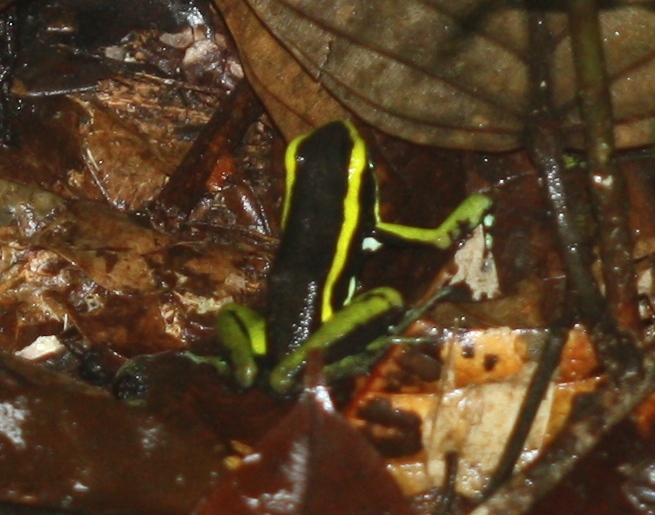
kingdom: Animalia
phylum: Chordata
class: Amphibia
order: Anura
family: Dendrobatidae
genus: Ameerega
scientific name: Ameerega trivittata
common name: Three-striped arrow-poison frog
